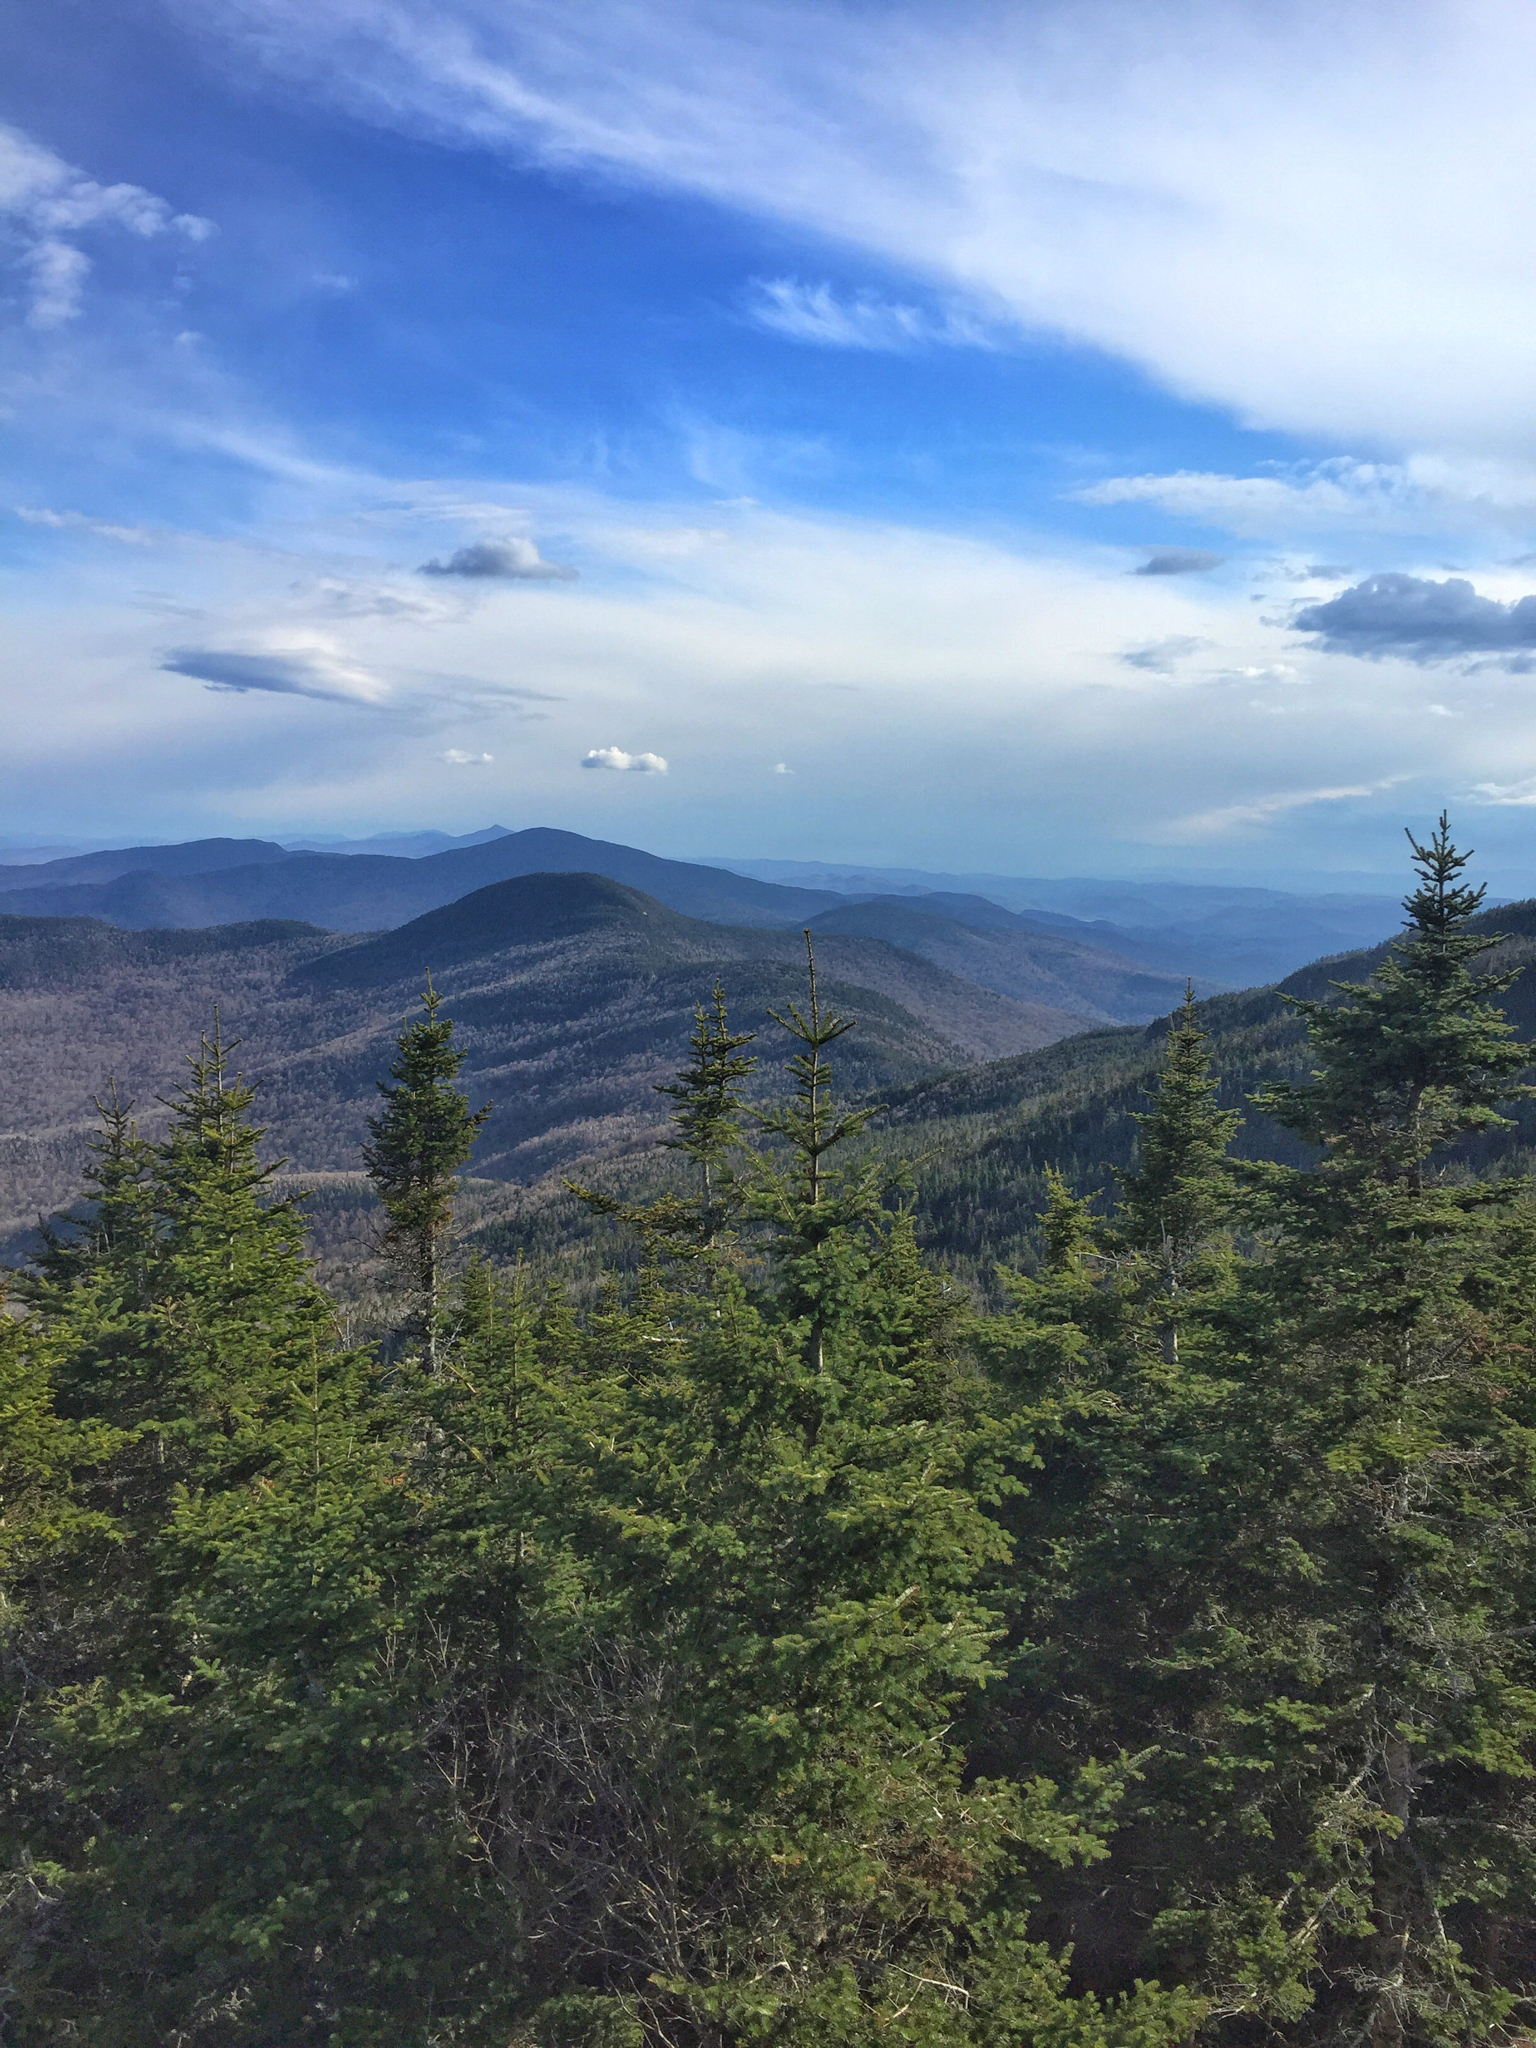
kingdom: Plantae
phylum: Tracheophyta
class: Pinopsida
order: Pinales
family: Pinaceae
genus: Abies
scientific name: Abies balsamea
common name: Balsam fir
